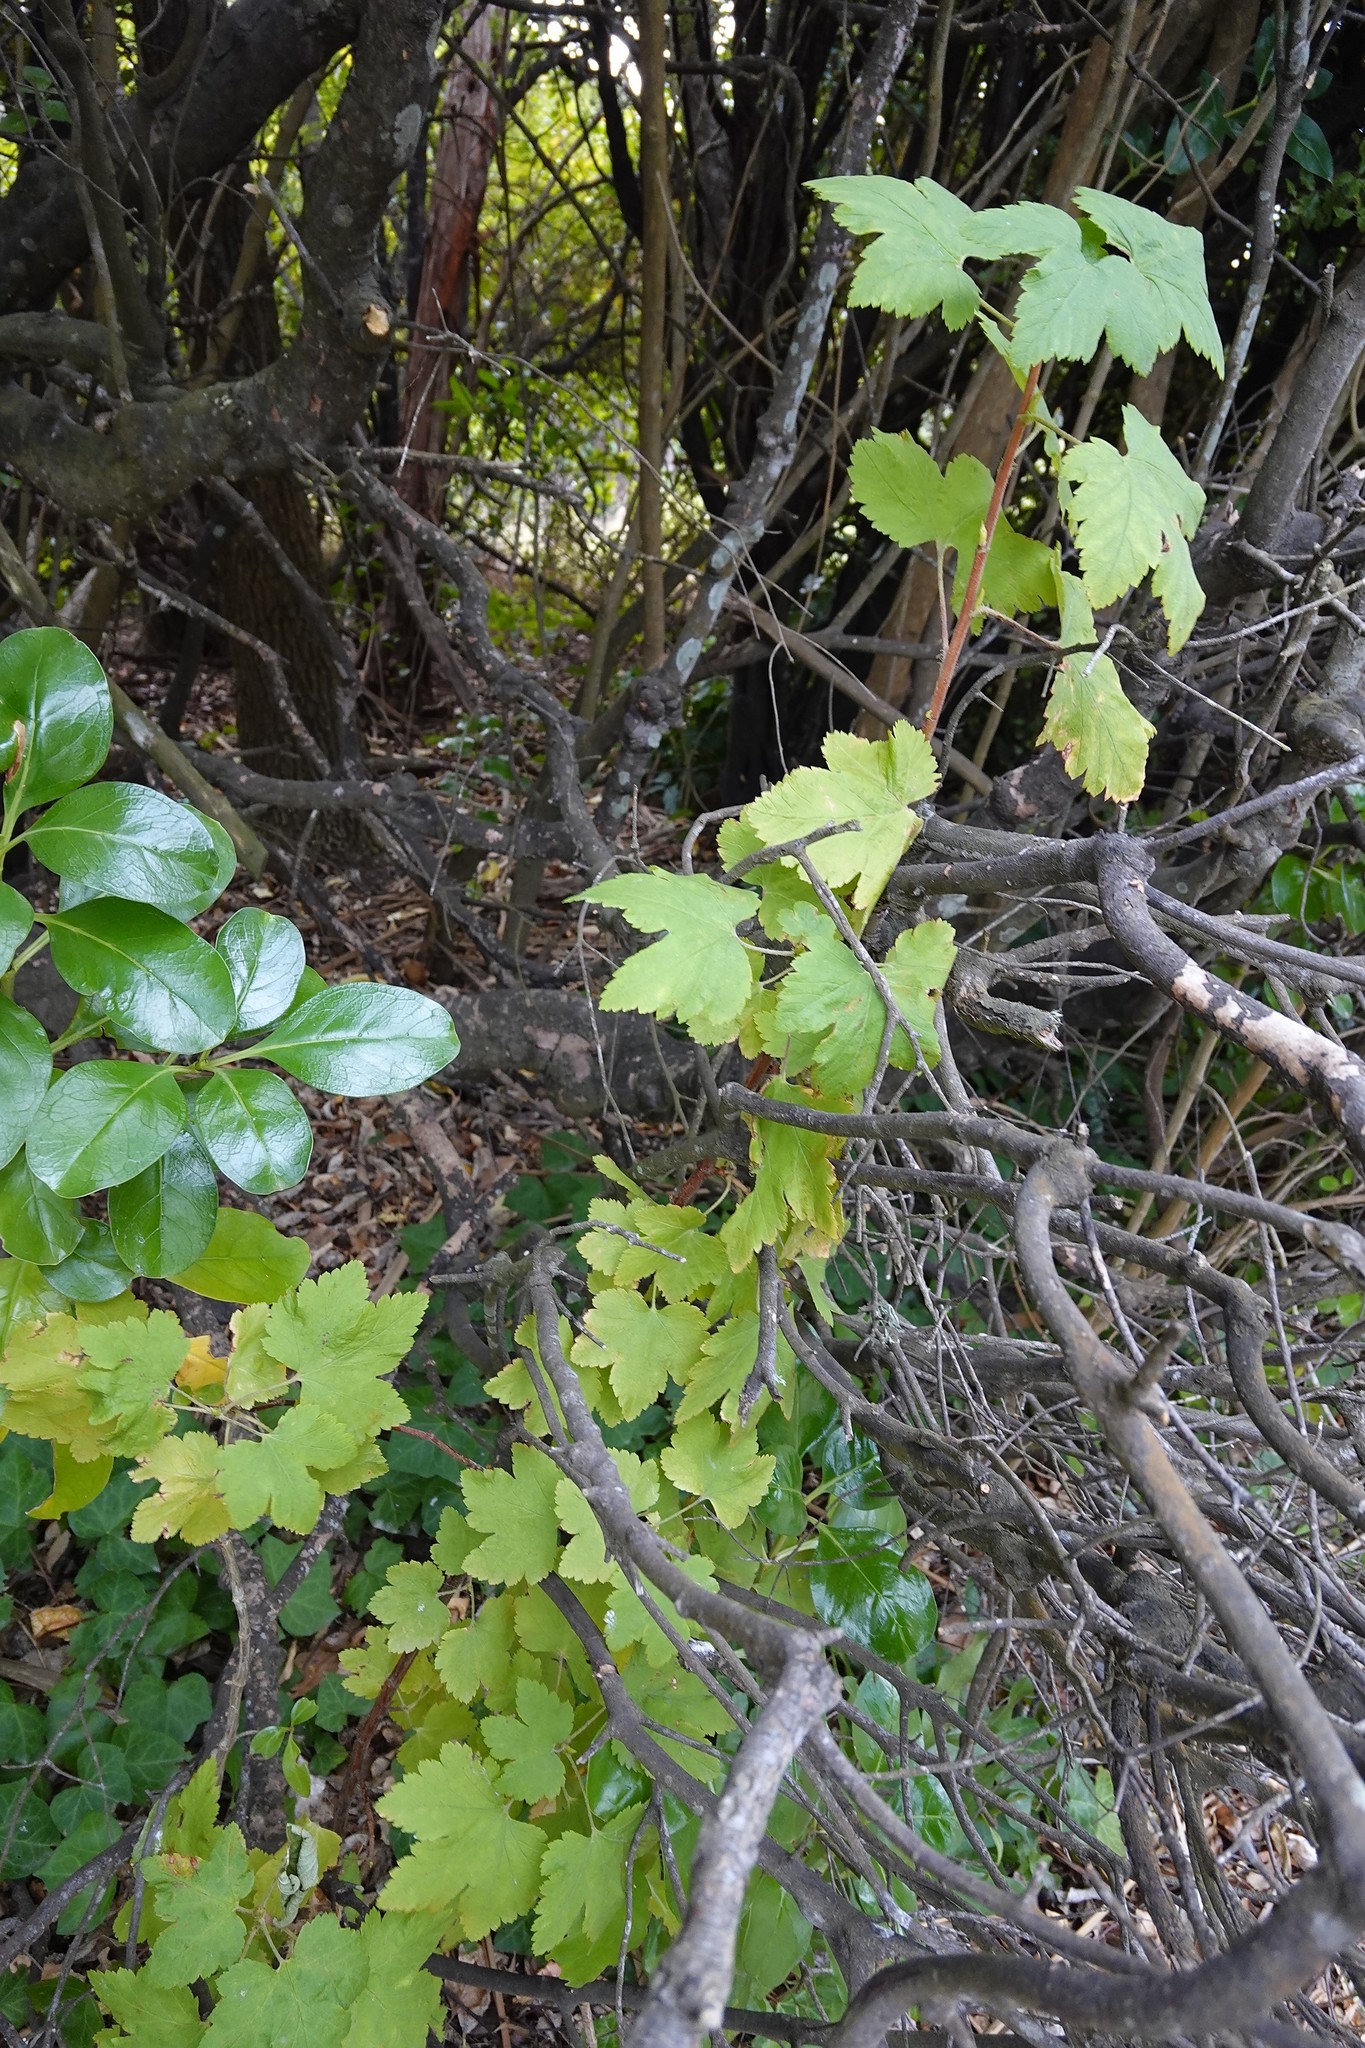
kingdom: Plantae
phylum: Tracheophyta
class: Magnoliopsida
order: Saxifragales
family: Grossulariaceae
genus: Ribes
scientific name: Ribes sanguineum
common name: Flowering currant
